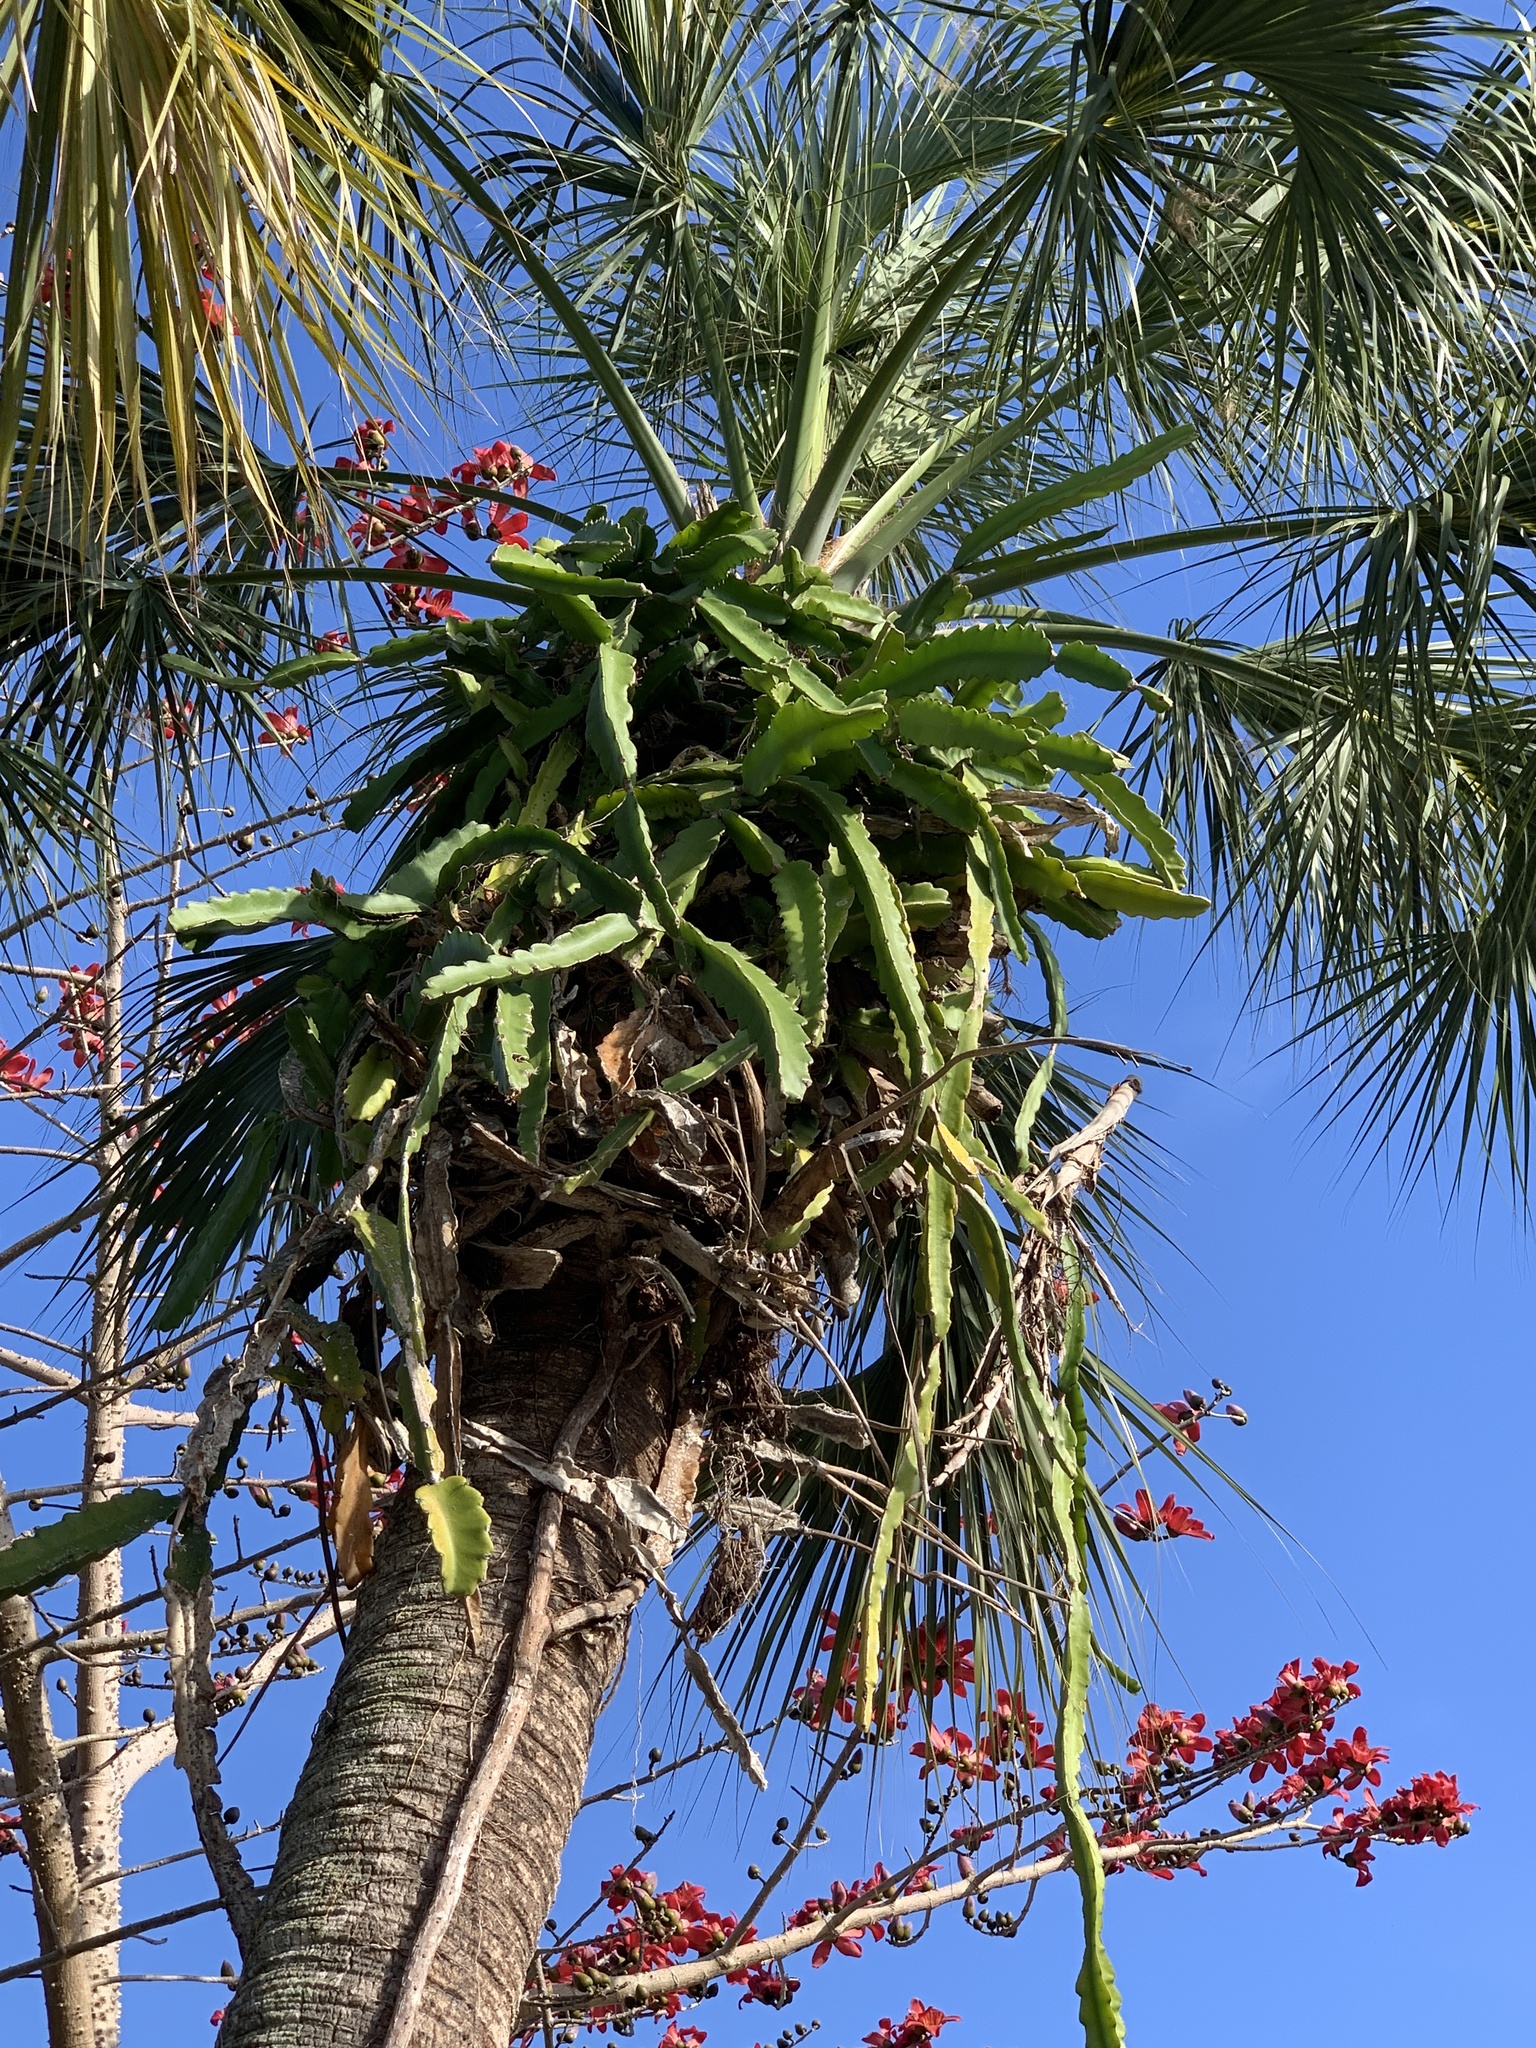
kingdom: Plantae
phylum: Tracheophyta
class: Magnoliopsida
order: Caryophyllales
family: Cactaceae
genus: Selenicereus
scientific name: Selenicereus undatus
